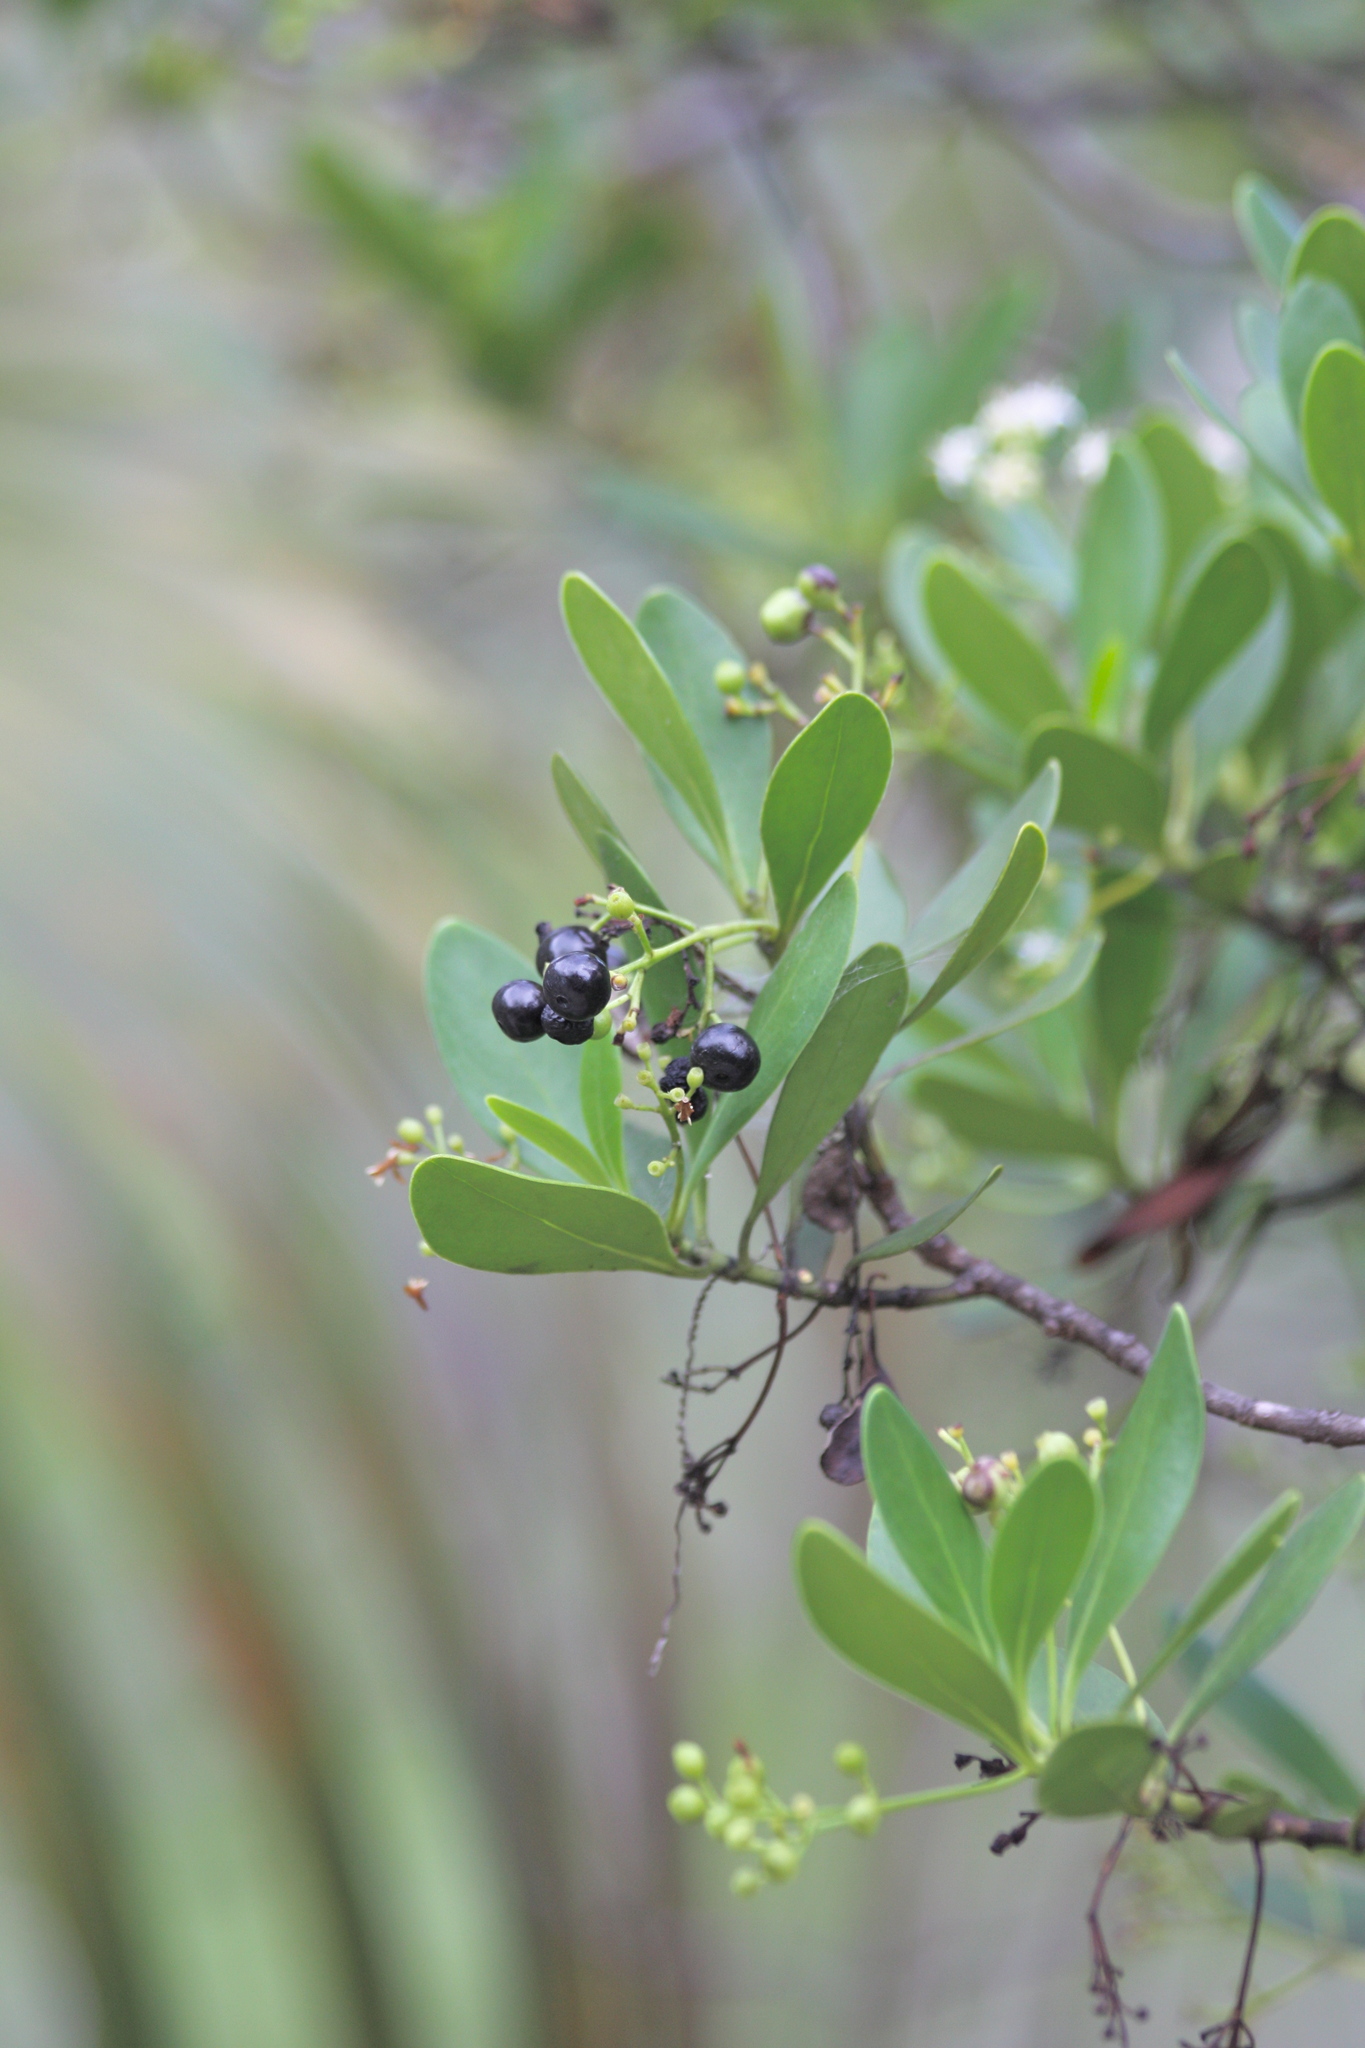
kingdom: Plantae
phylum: Tracheophyta
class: Magnoliopsida
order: Gentianales
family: Rubiaceae
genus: Erithalis
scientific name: Erithalis fruticosa
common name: Candlewood
